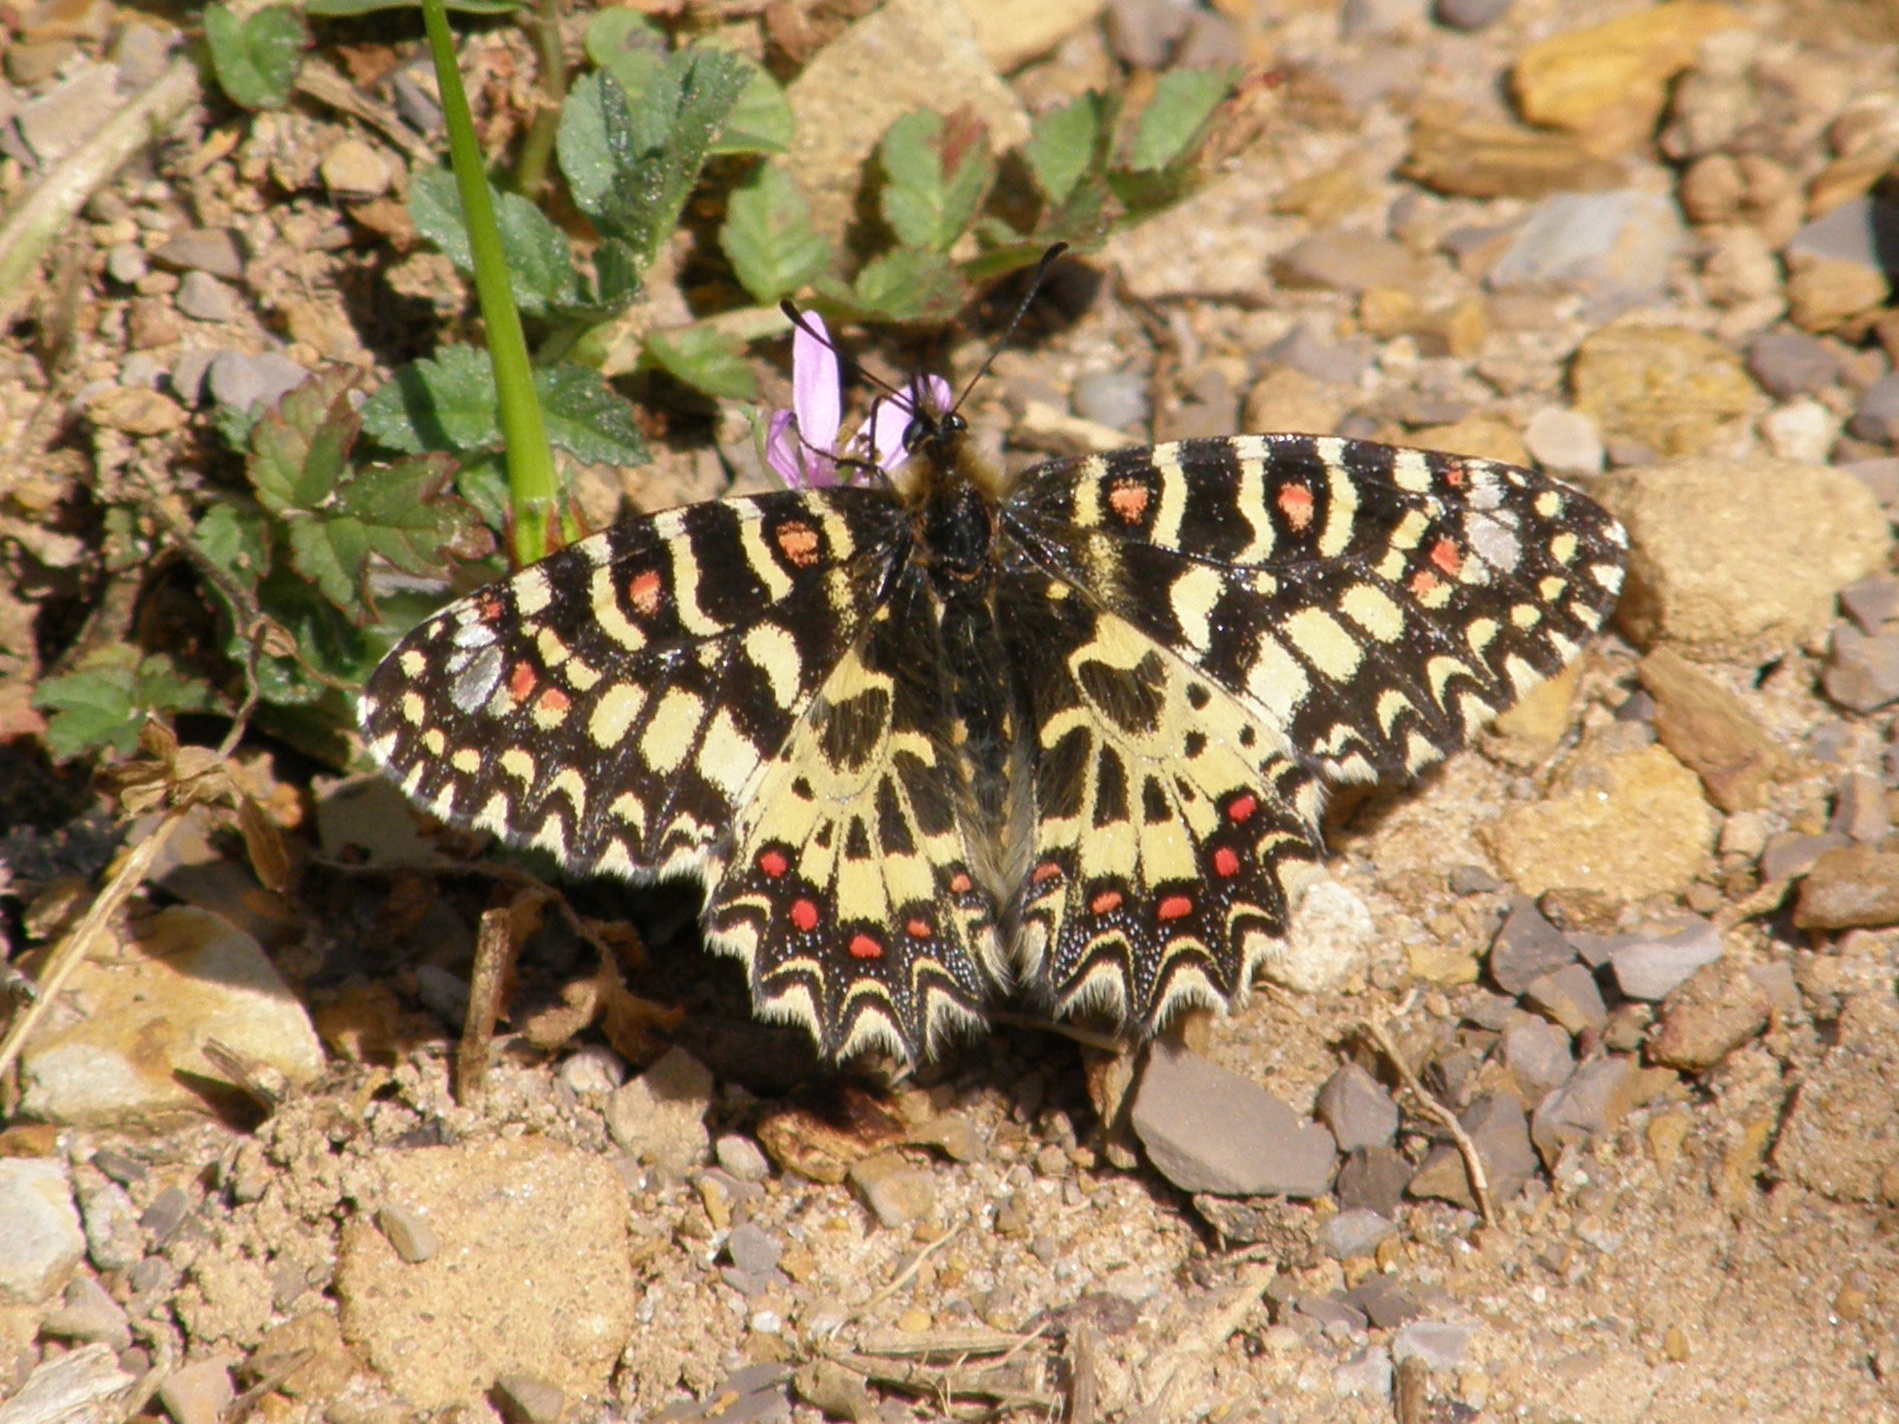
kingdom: Animalia
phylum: Arthropoda
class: Insecta
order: Lepidoptera
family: Papilionidae
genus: Zerynthia
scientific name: Zerynthia rumina
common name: Spanish festoon
